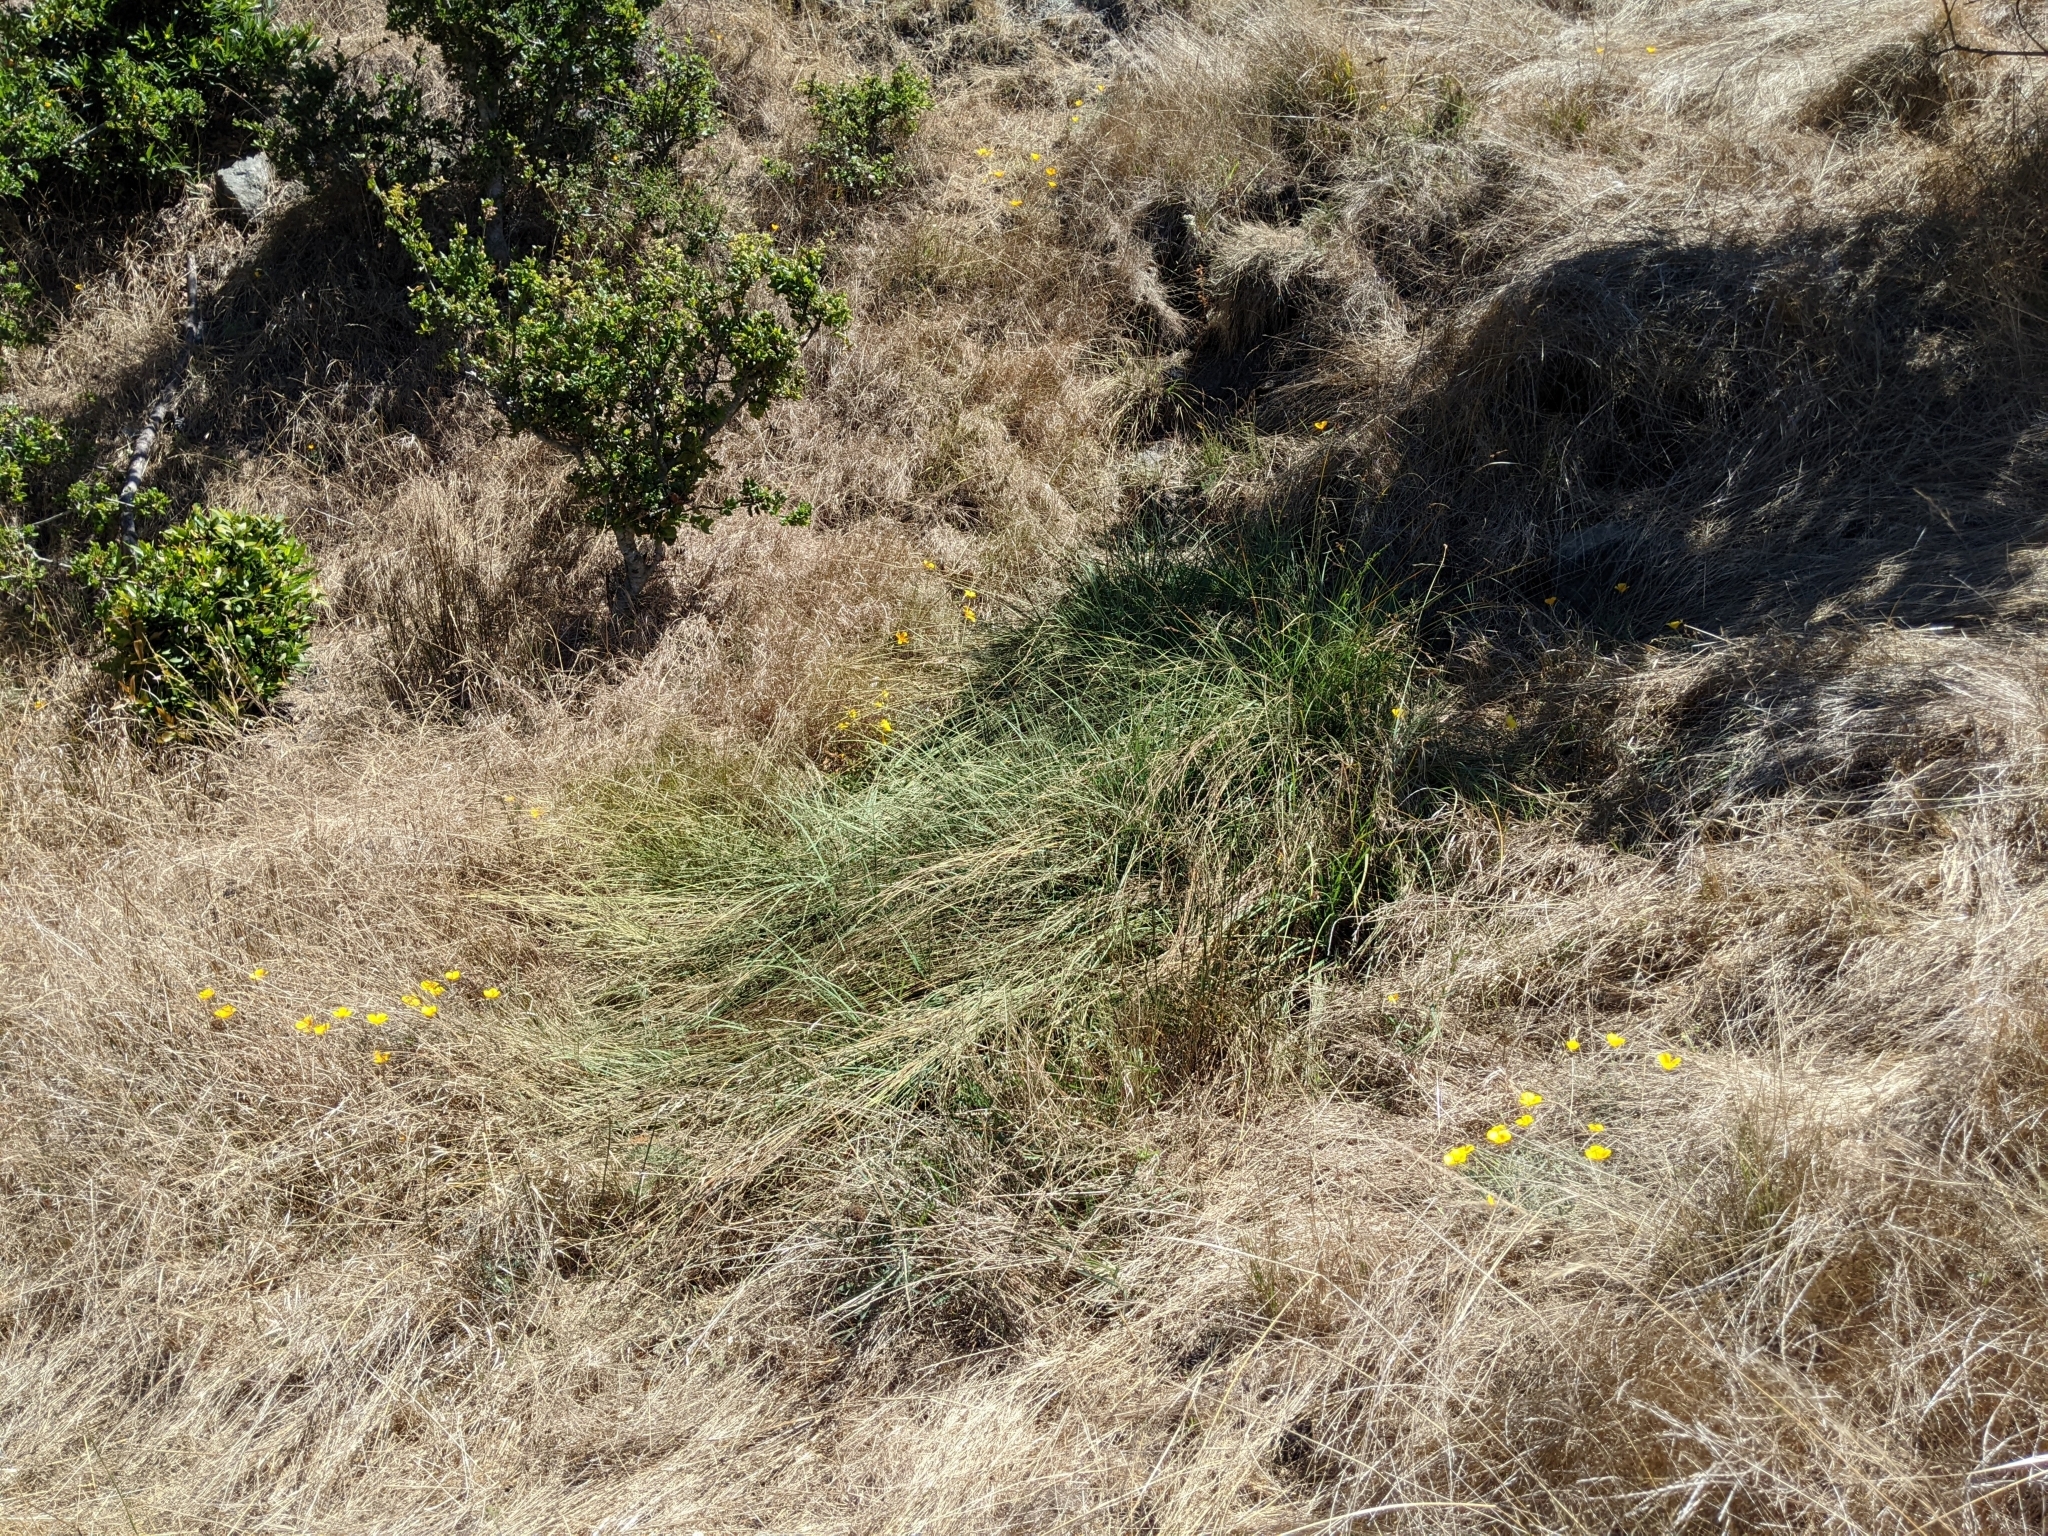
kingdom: Plantae
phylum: Tracheophyta
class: Liliopsida
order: Poales
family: Cyperaceae
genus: Carex
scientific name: Carex serratodens
